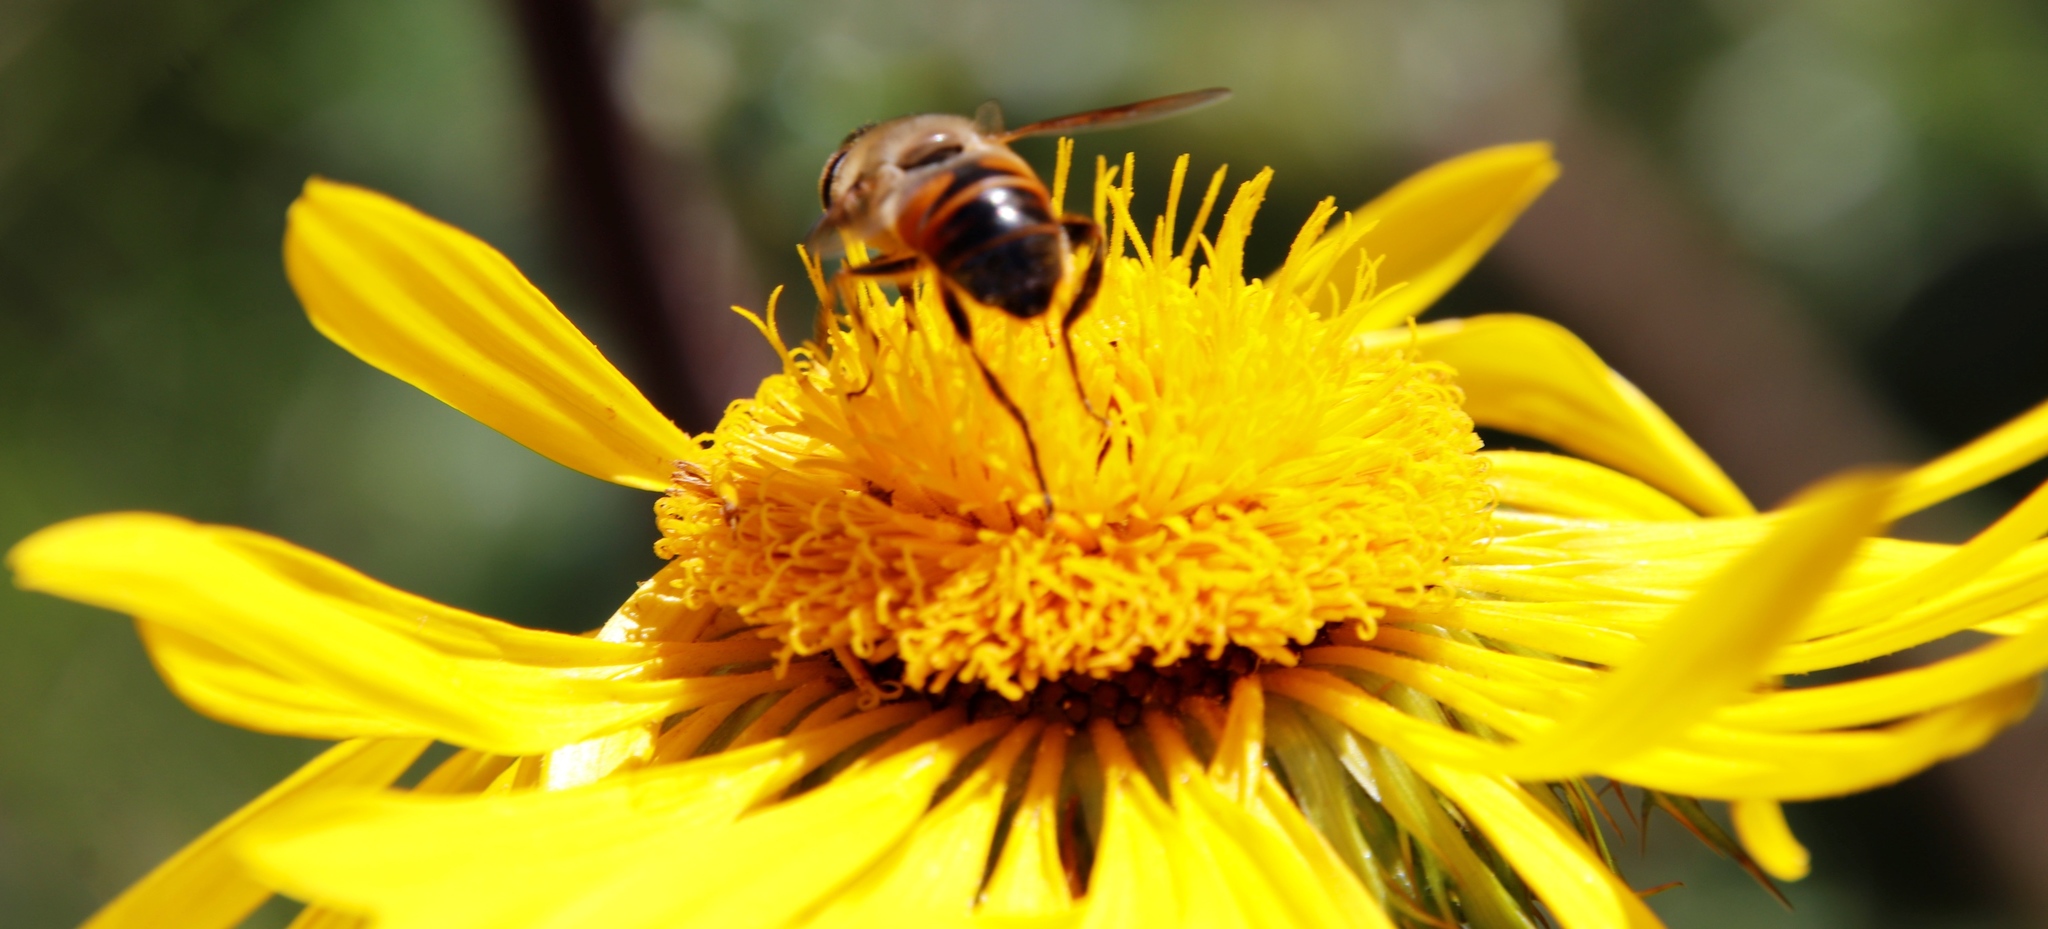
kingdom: Animalia
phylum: Arthropoda
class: Insecta
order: Diptera
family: Syrphidae
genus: Eristalis
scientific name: Eristalis tenax
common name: Drone fly
